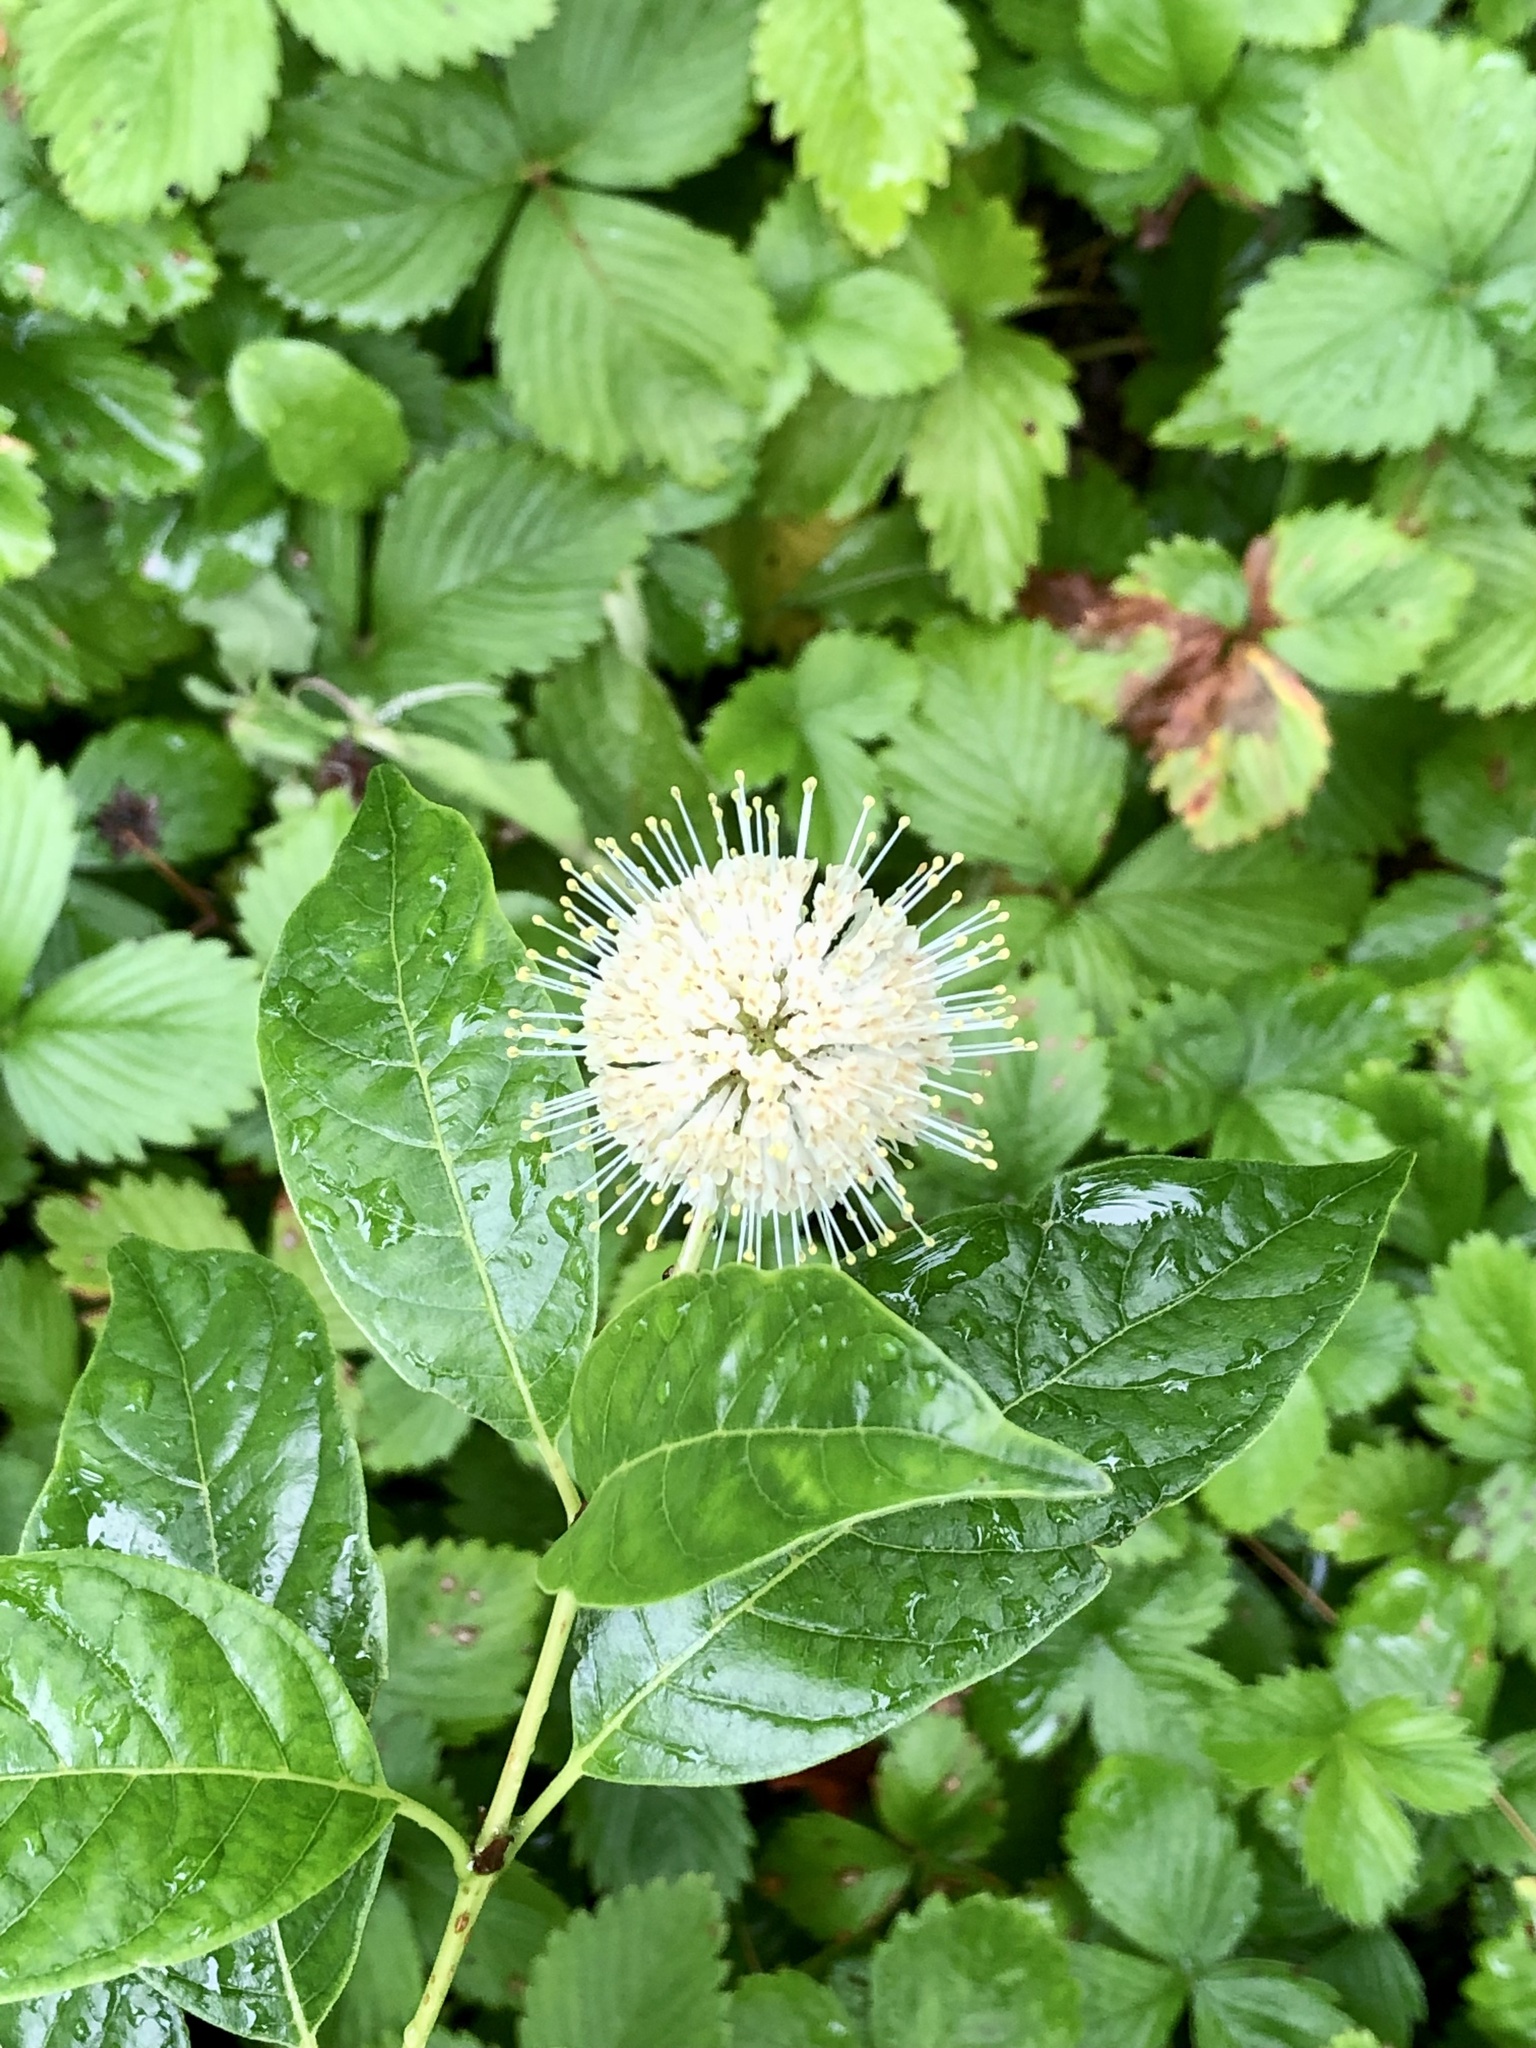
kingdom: Plantae
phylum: Tracheophyta
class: Magnoliopsida
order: Gentianales
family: Rubiaceae
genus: Cephalanthus
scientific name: Cephalanthus occidentalis
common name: Button-willow
